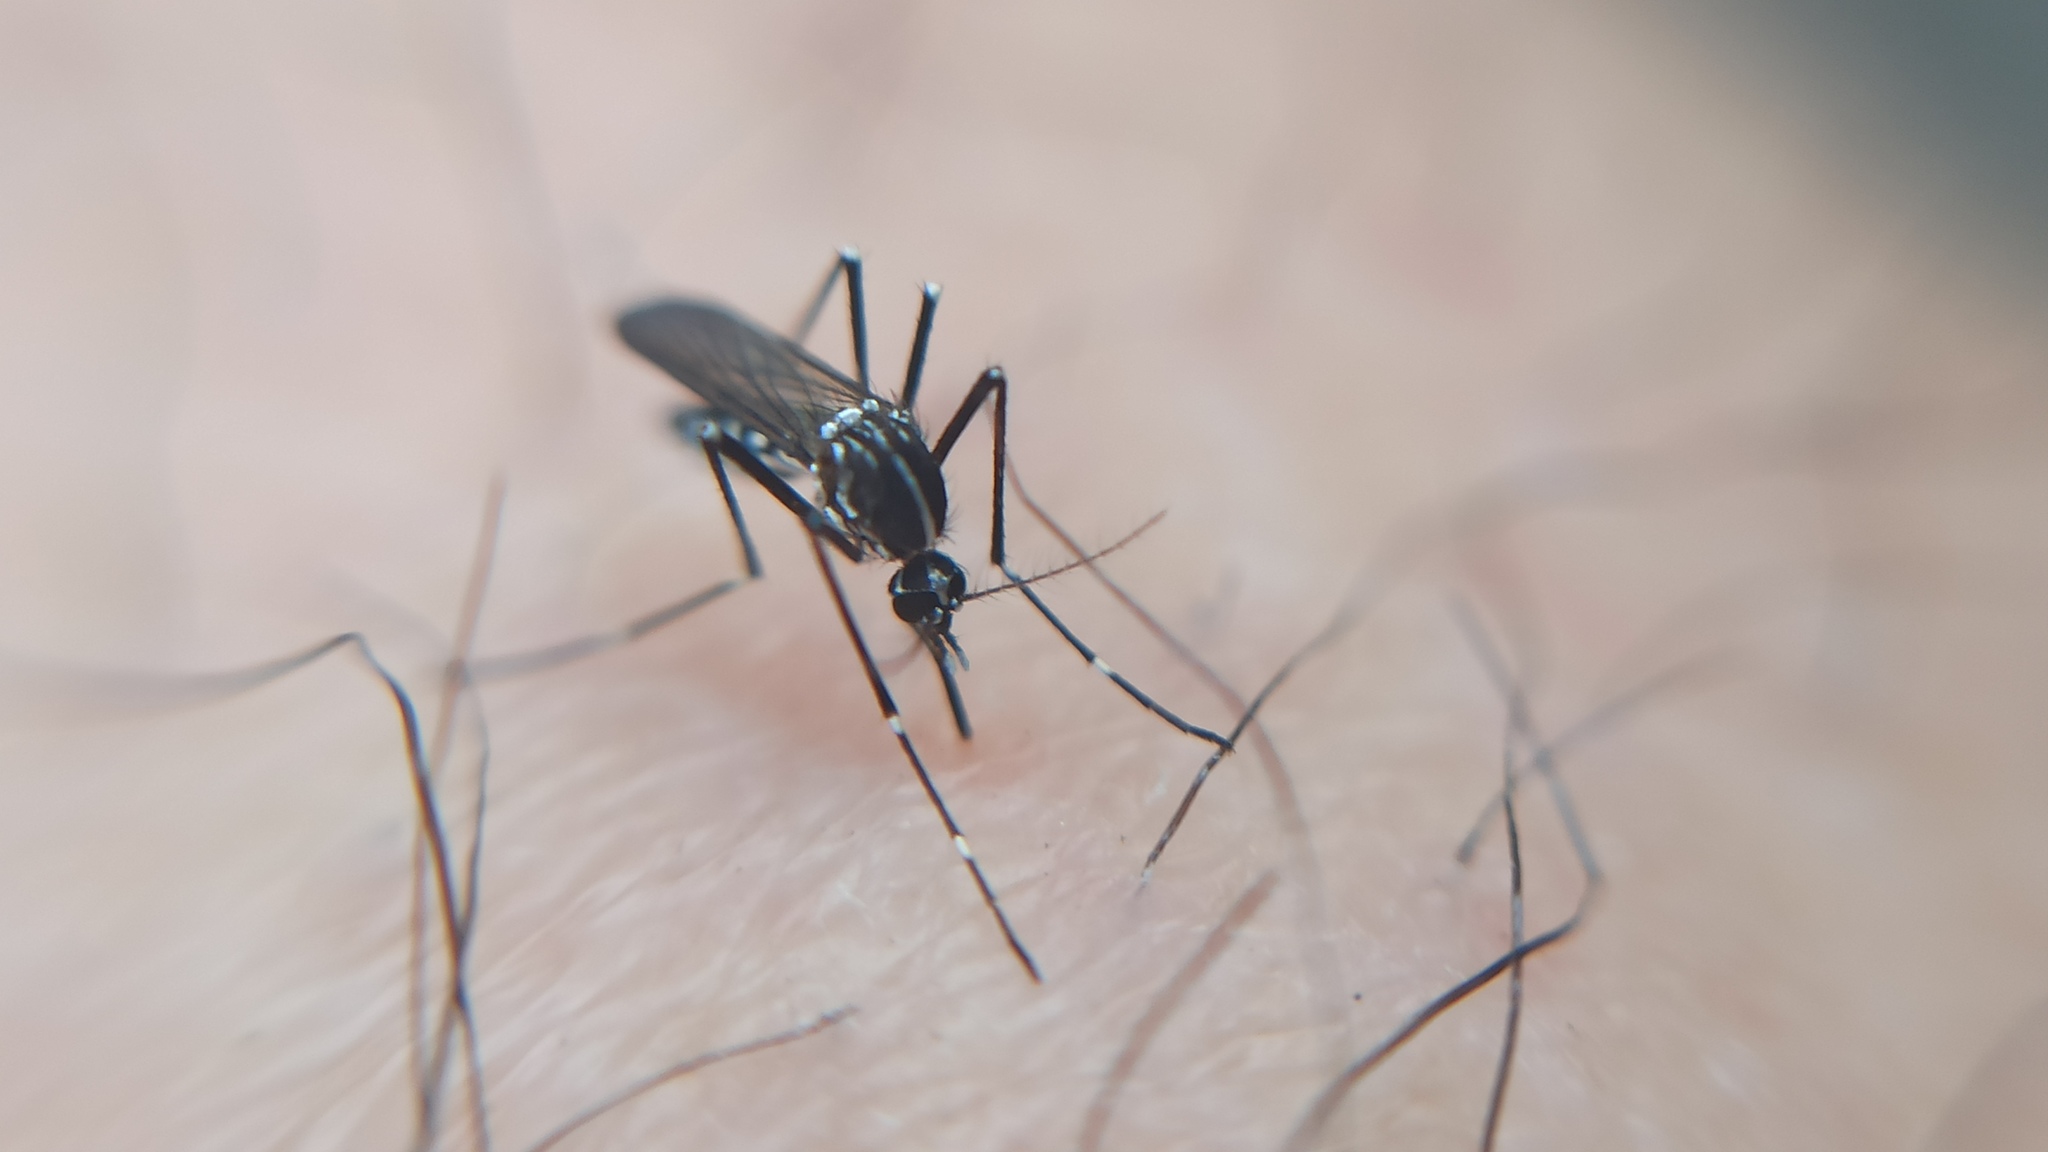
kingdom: Animalia
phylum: Arthropoda
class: Insecta
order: Diptera
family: Culicidae
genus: Aedes
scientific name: Aedes albopictus
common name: Tiger mosquito
